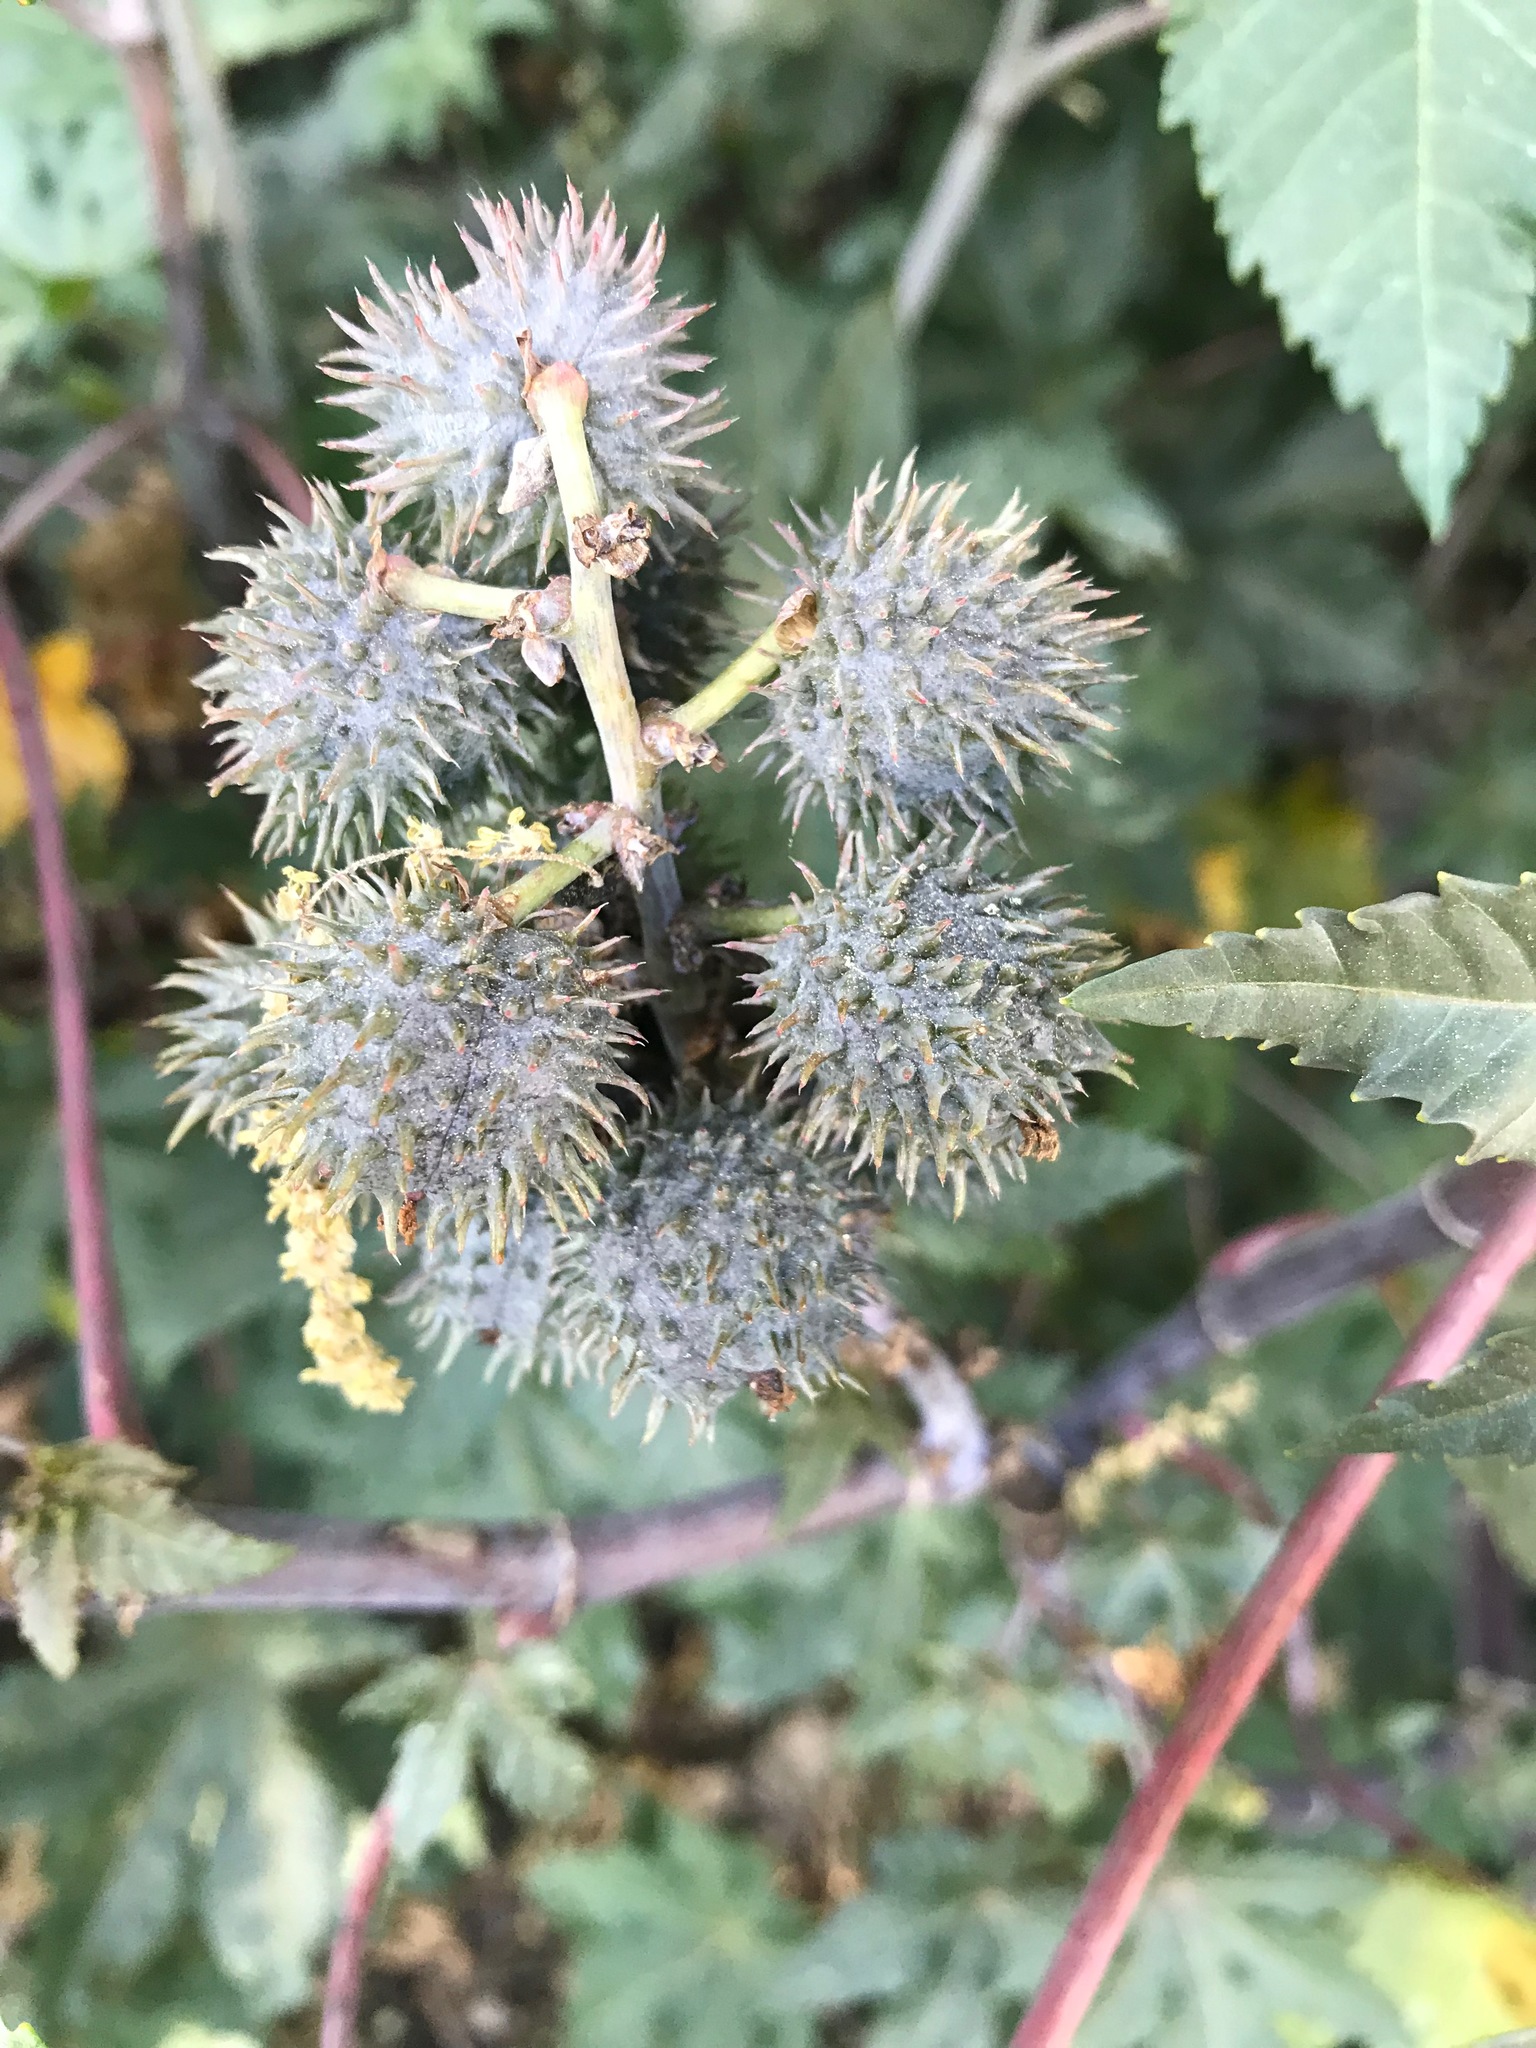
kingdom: Plantae
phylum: Tracheophyta
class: Magnoliopsida
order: Malpighiales
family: Euphorbiaceae
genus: Ricinus
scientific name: Ricinus communis
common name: Castor-oil-plant
